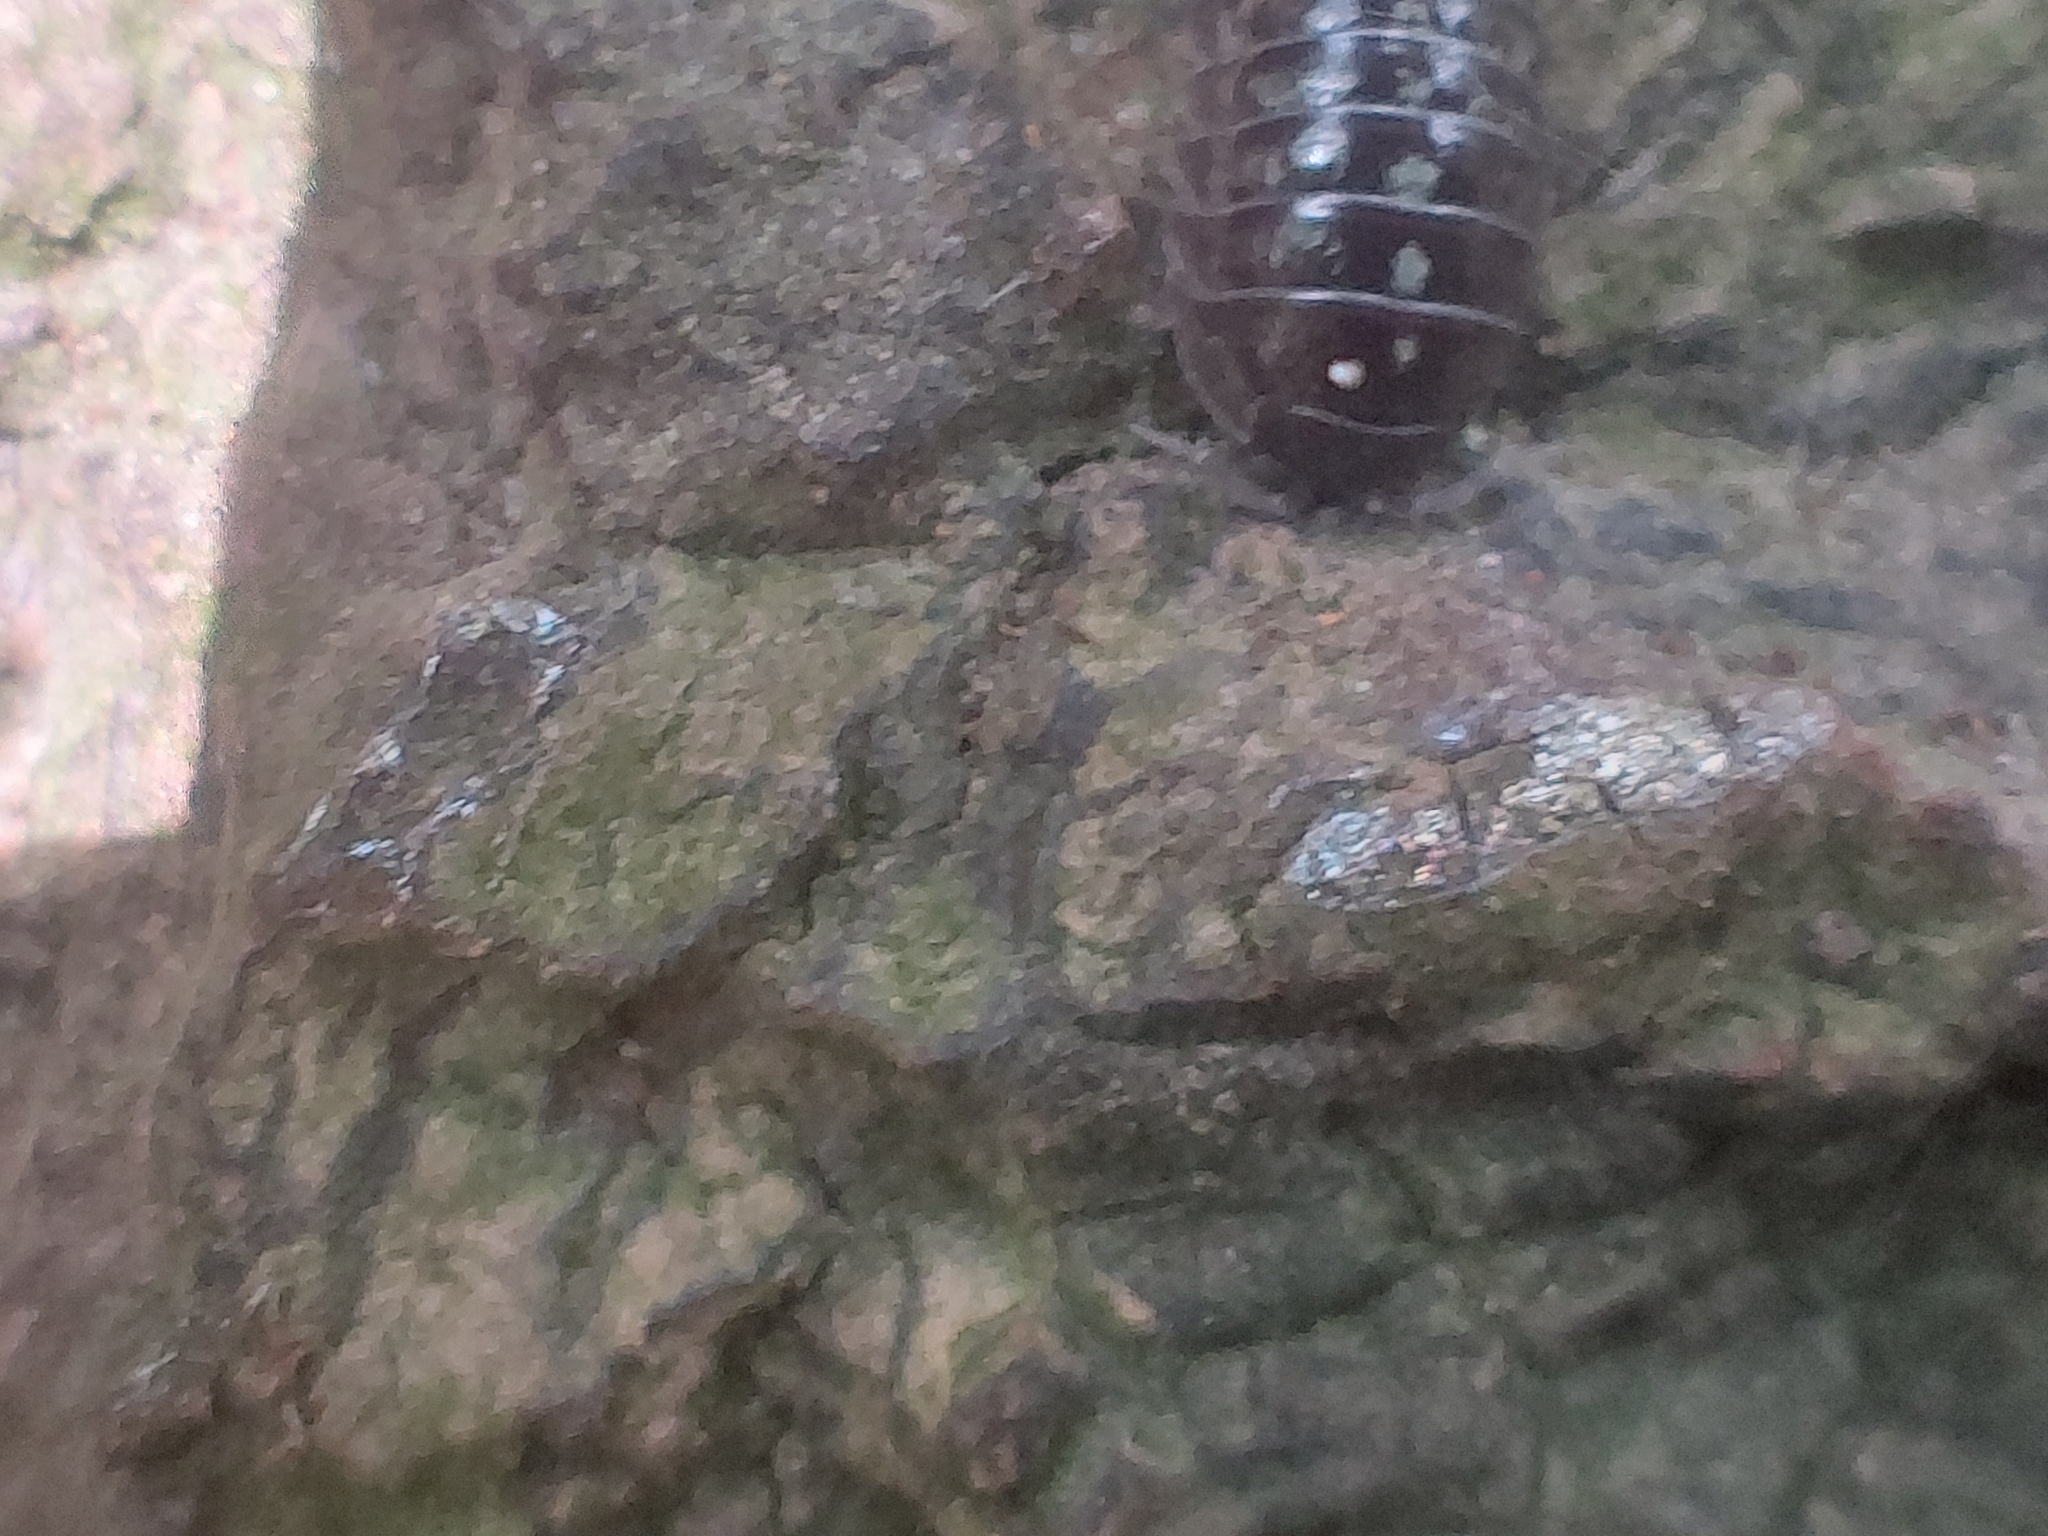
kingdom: Animalia
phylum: Arthropoda
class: Malacostraca
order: Isopoda
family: Armadillidiidae
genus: Armadillidium
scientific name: Armadillidium vulgare
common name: Common pill woodlouse
